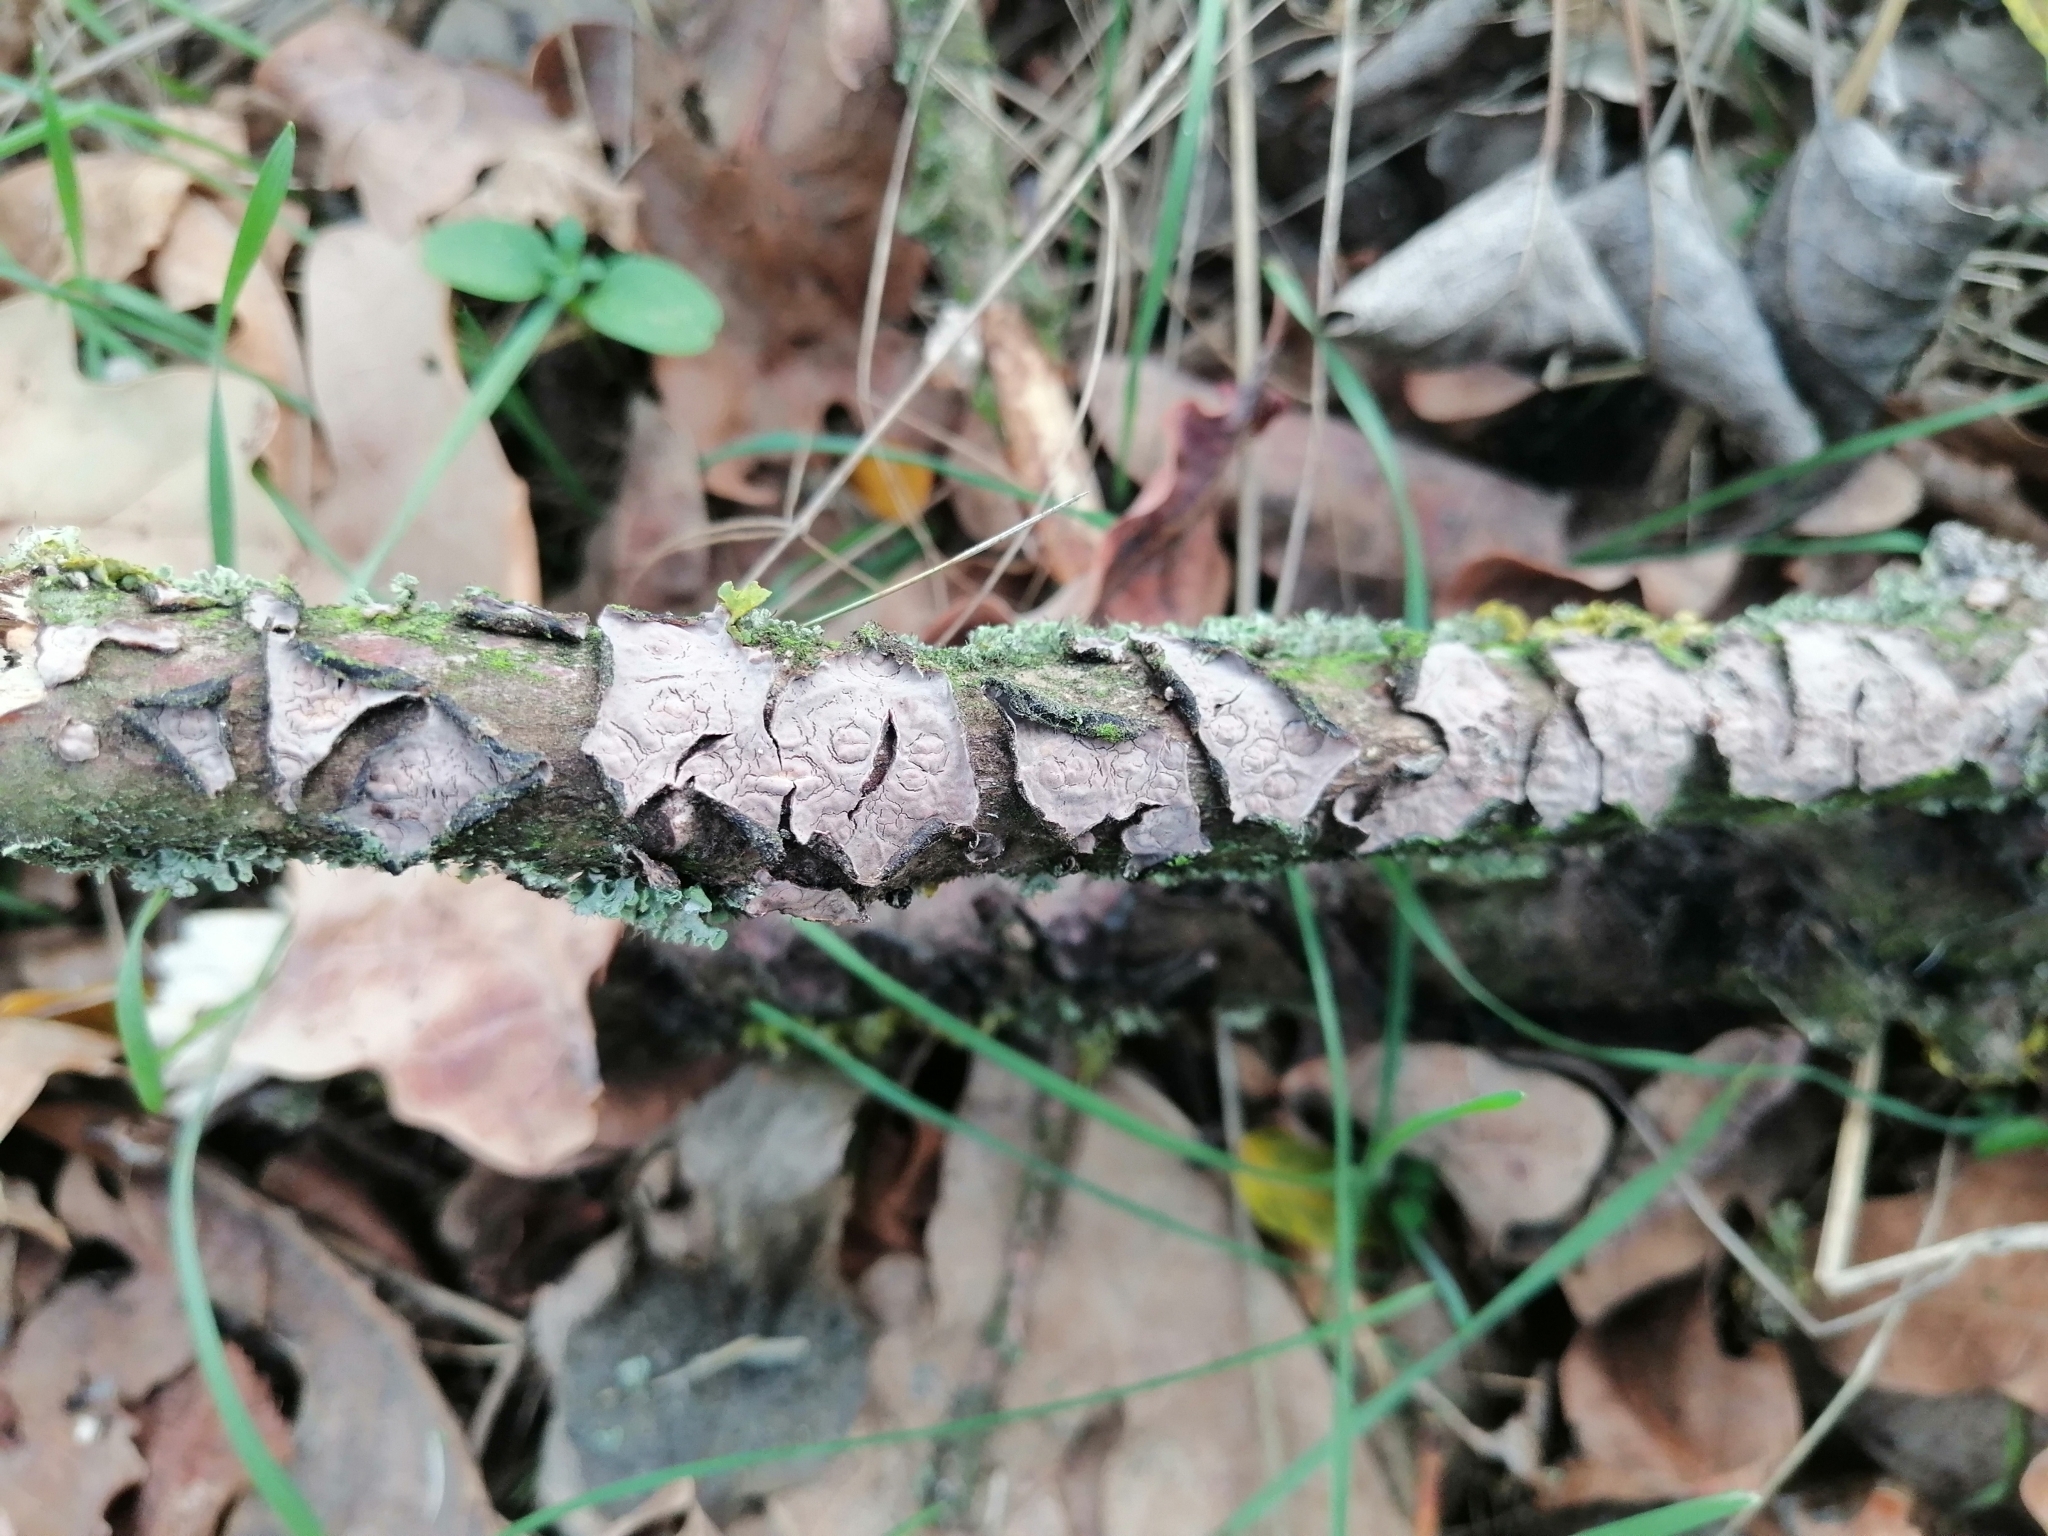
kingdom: Fungi
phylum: Basidiomycota
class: Agaricomycetes
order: Russulales
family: Peniophoraceae
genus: Peniophora
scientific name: Peniophora quercina
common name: Oak crust
